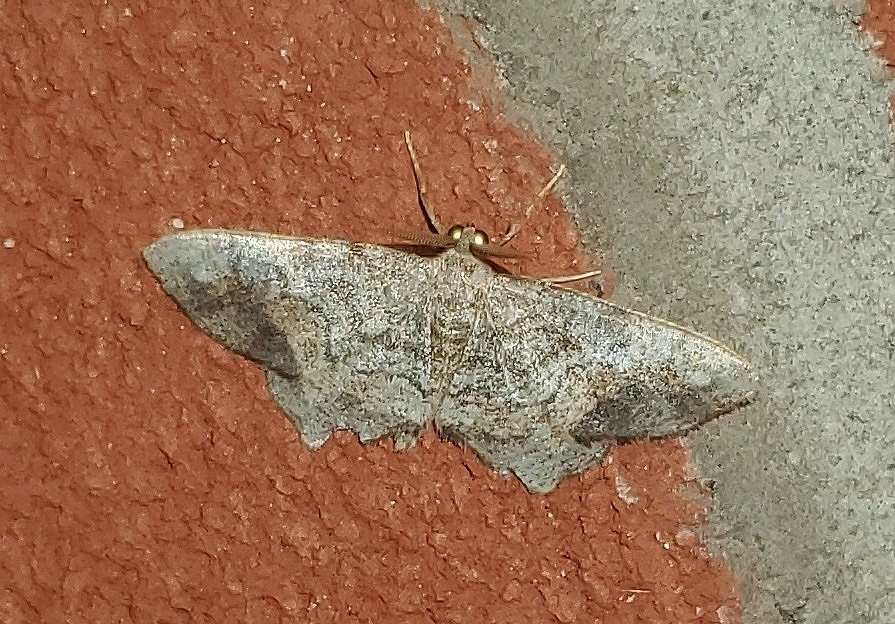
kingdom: Animalia
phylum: Arthropoda
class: Insecta
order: Lepidoptera
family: Geometridae
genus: Hypagyrtis
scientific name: Hypagyrtis unipunctata
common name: One-spotted variant
